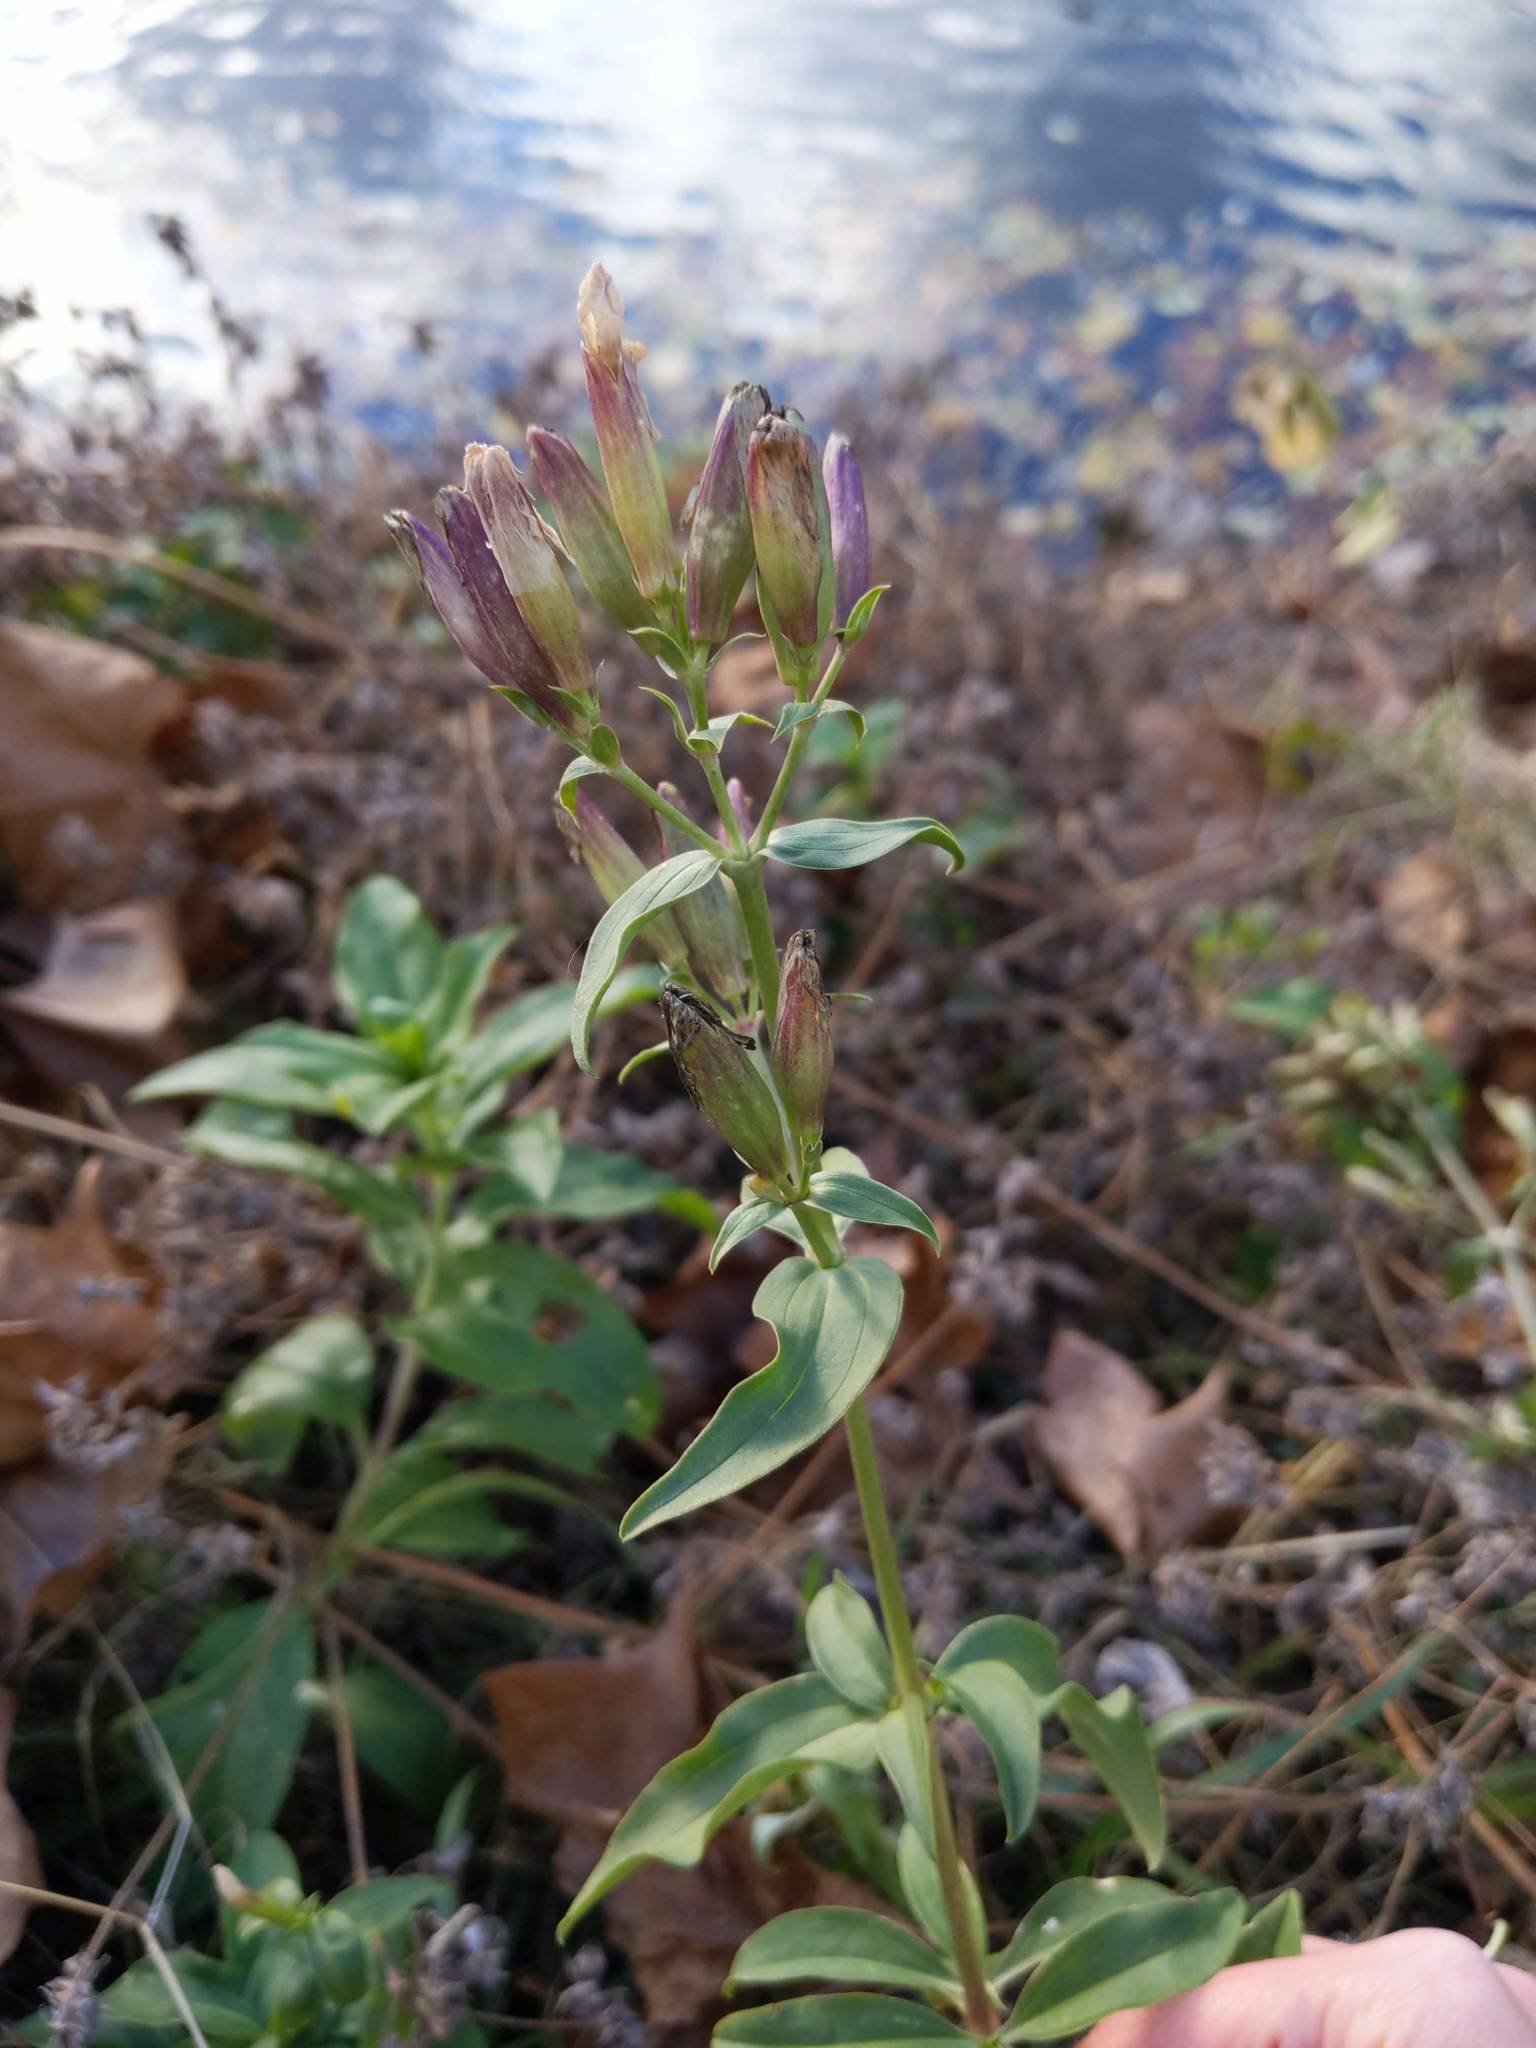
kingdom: Plantae
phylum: Tracheophyta
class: Magnoliopsida
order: Caryophyllales
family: Caryophyllaceae
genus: Saponaria
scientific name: Saponaria officinalis
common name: Soapwort
